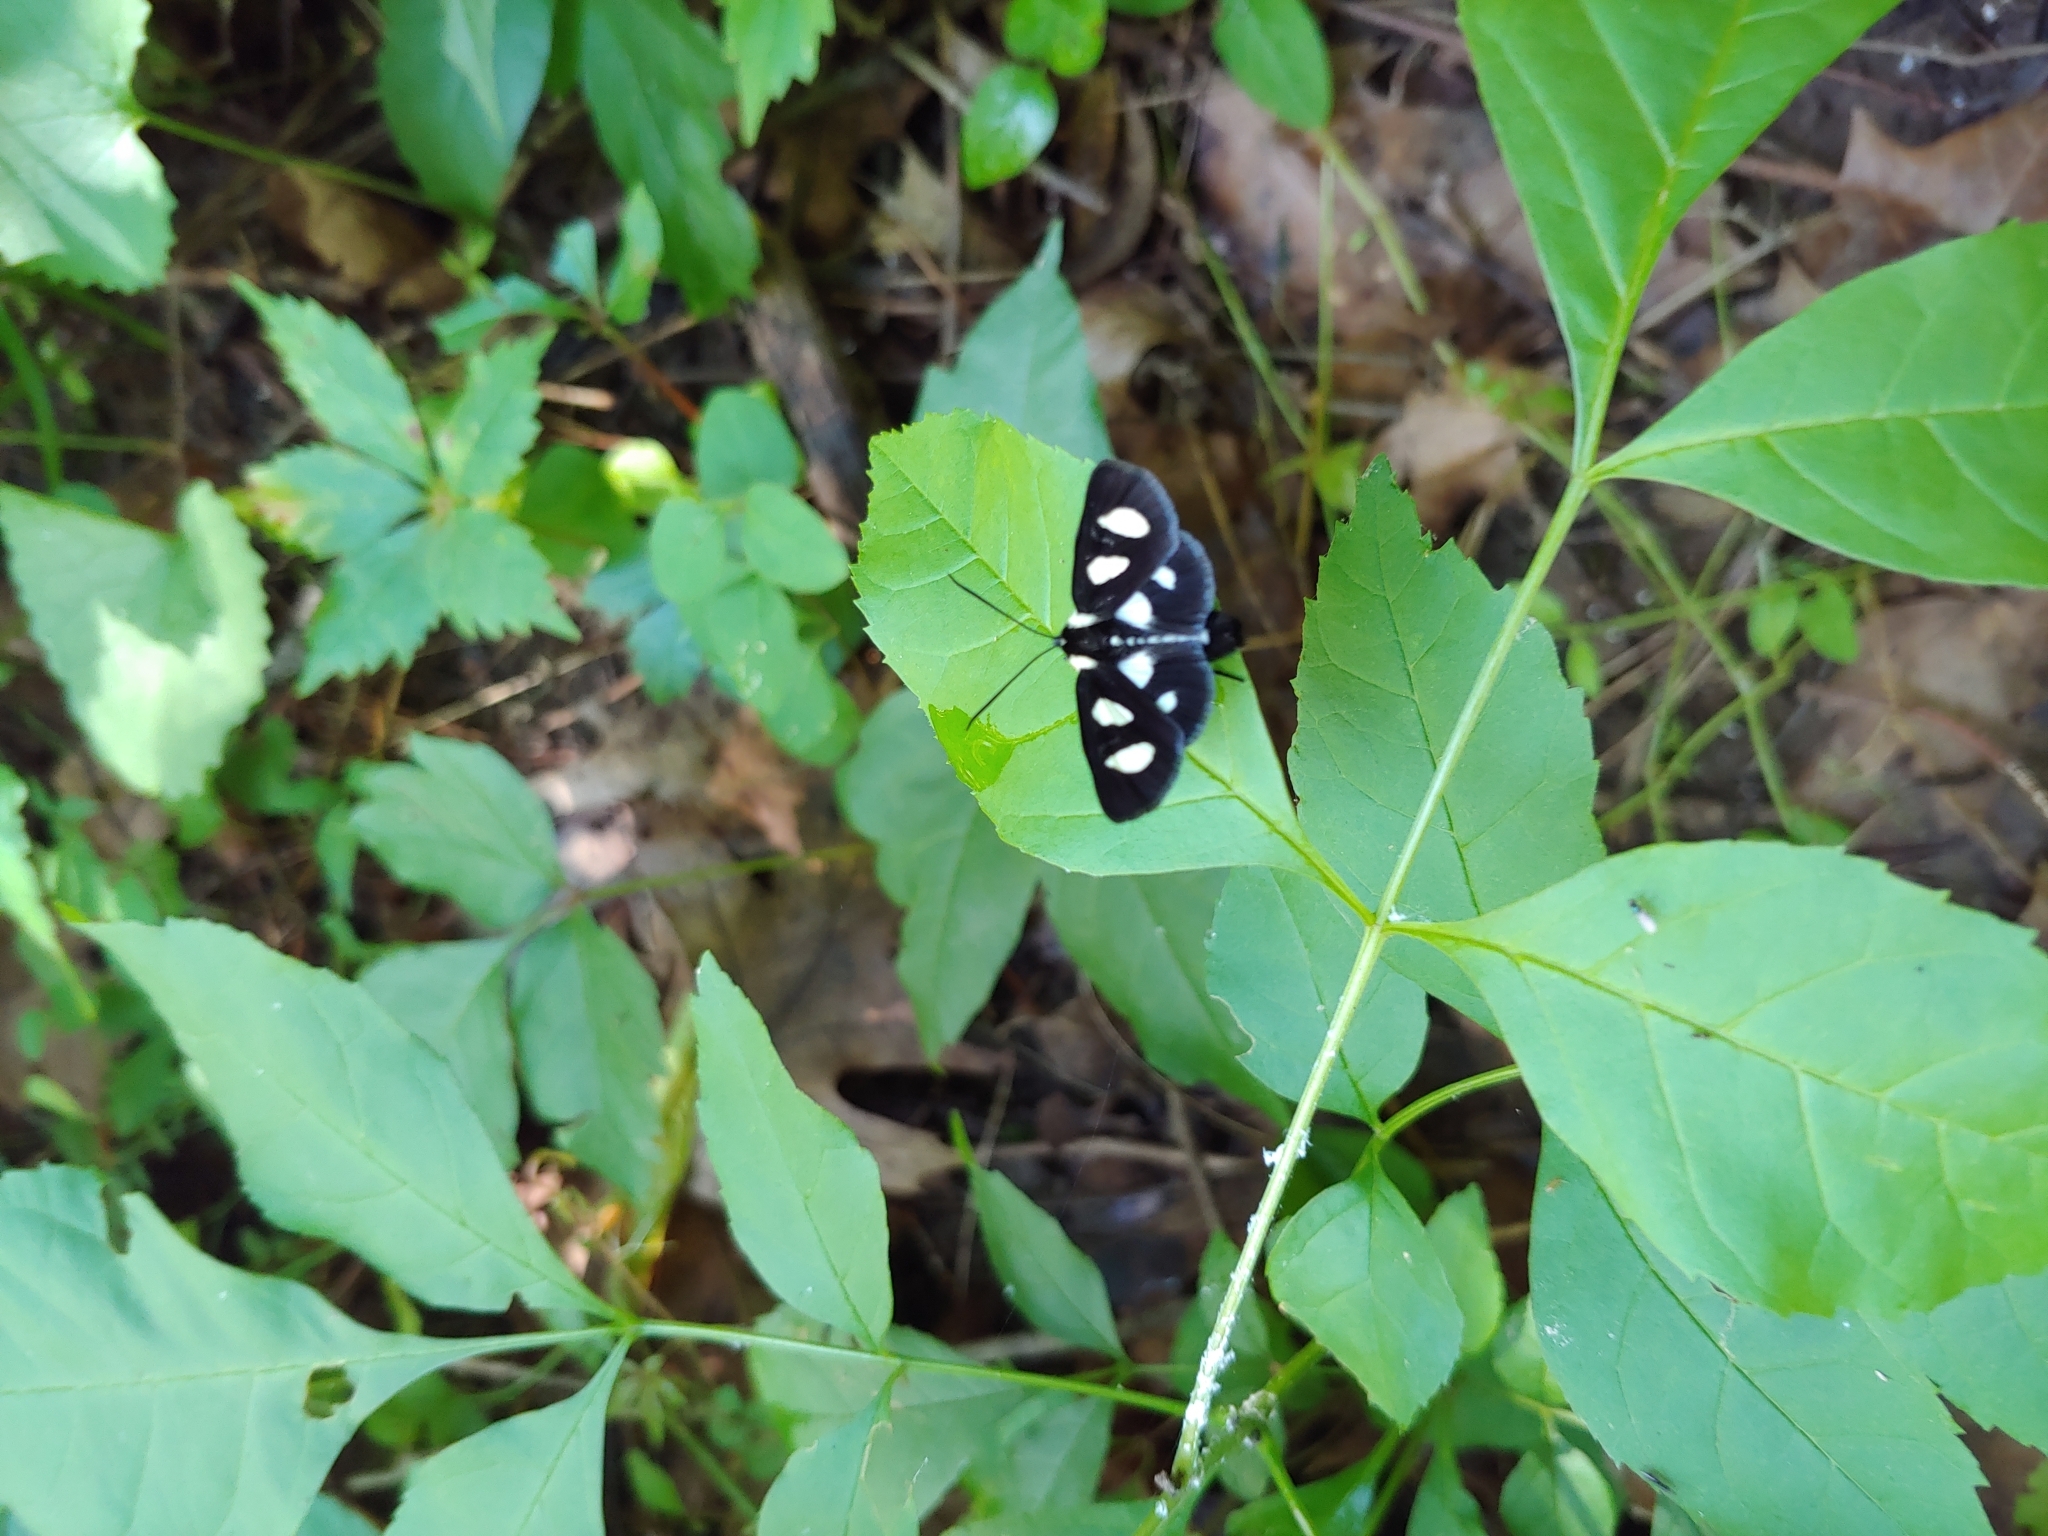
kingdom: Animalia
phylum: Arthropoda
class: Insecta
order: Lepidoptera
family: Noctuidae
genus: Alypia
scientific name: Alypia octomaculata
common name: Eight-spotted forester
